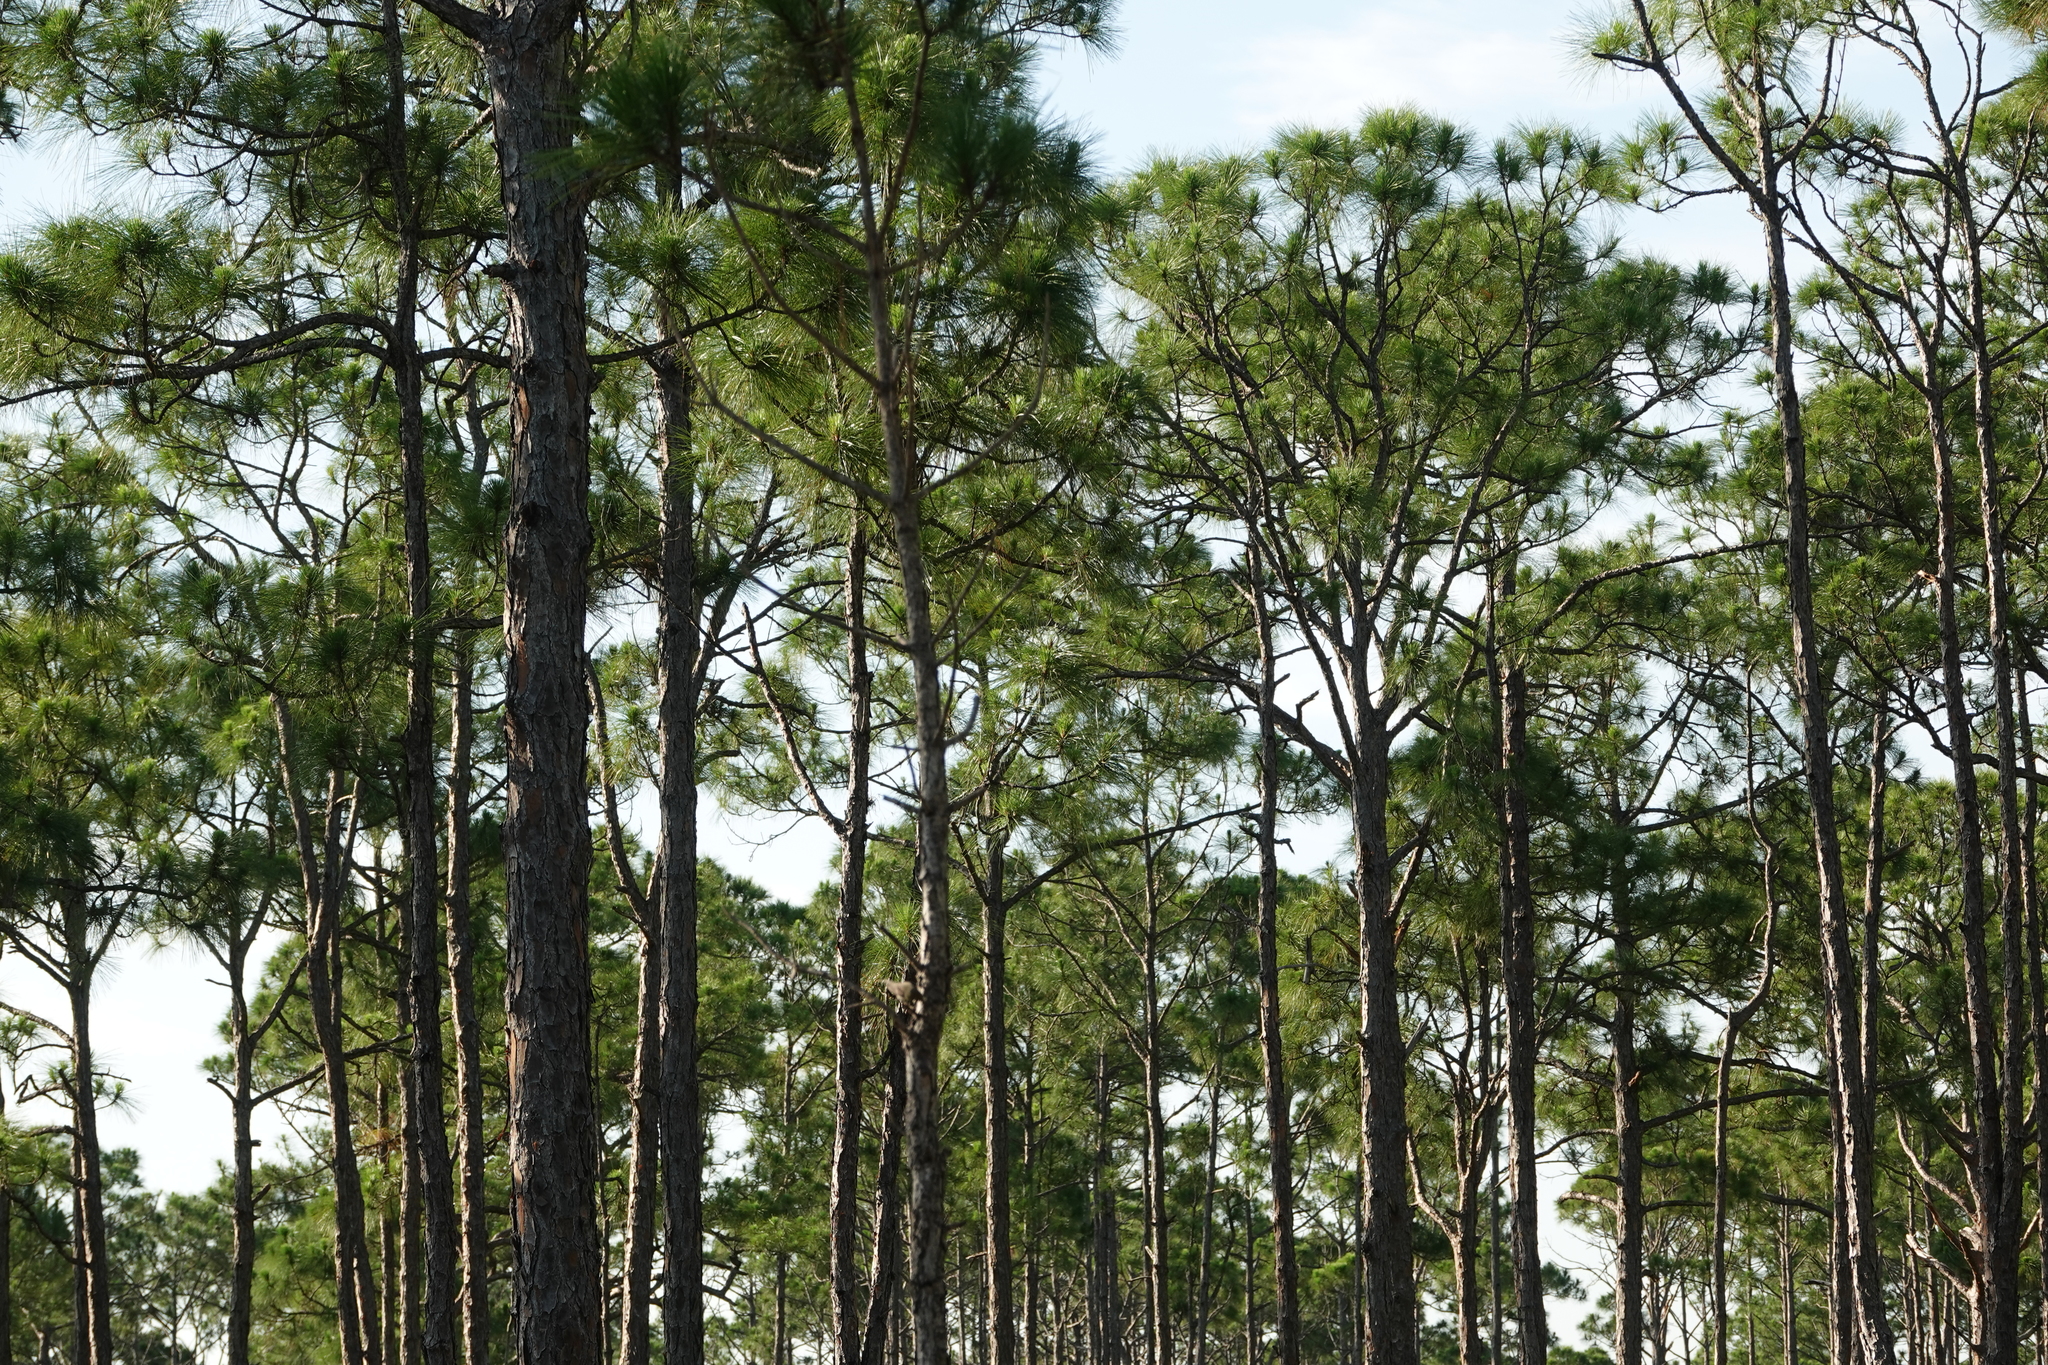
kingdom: Plantae
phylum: Tracheophyta
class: Pinopsida
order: Pinales
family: Pinaceae
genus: Pinus
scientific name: Pinus elliottii
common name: Slash pine
